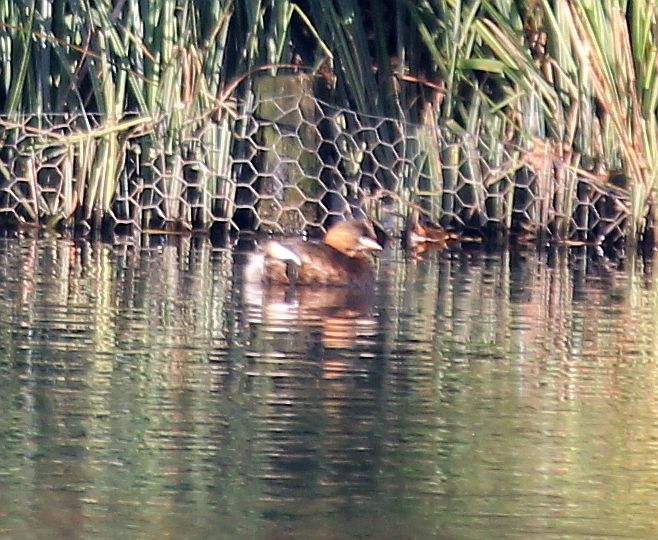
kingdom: Animalia
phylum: Chordata
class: Aves
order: Podicipediformes
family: Podicipedidae
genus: Tachybaptus
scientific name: Tachybaptus ruficollis
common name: Little grebe
